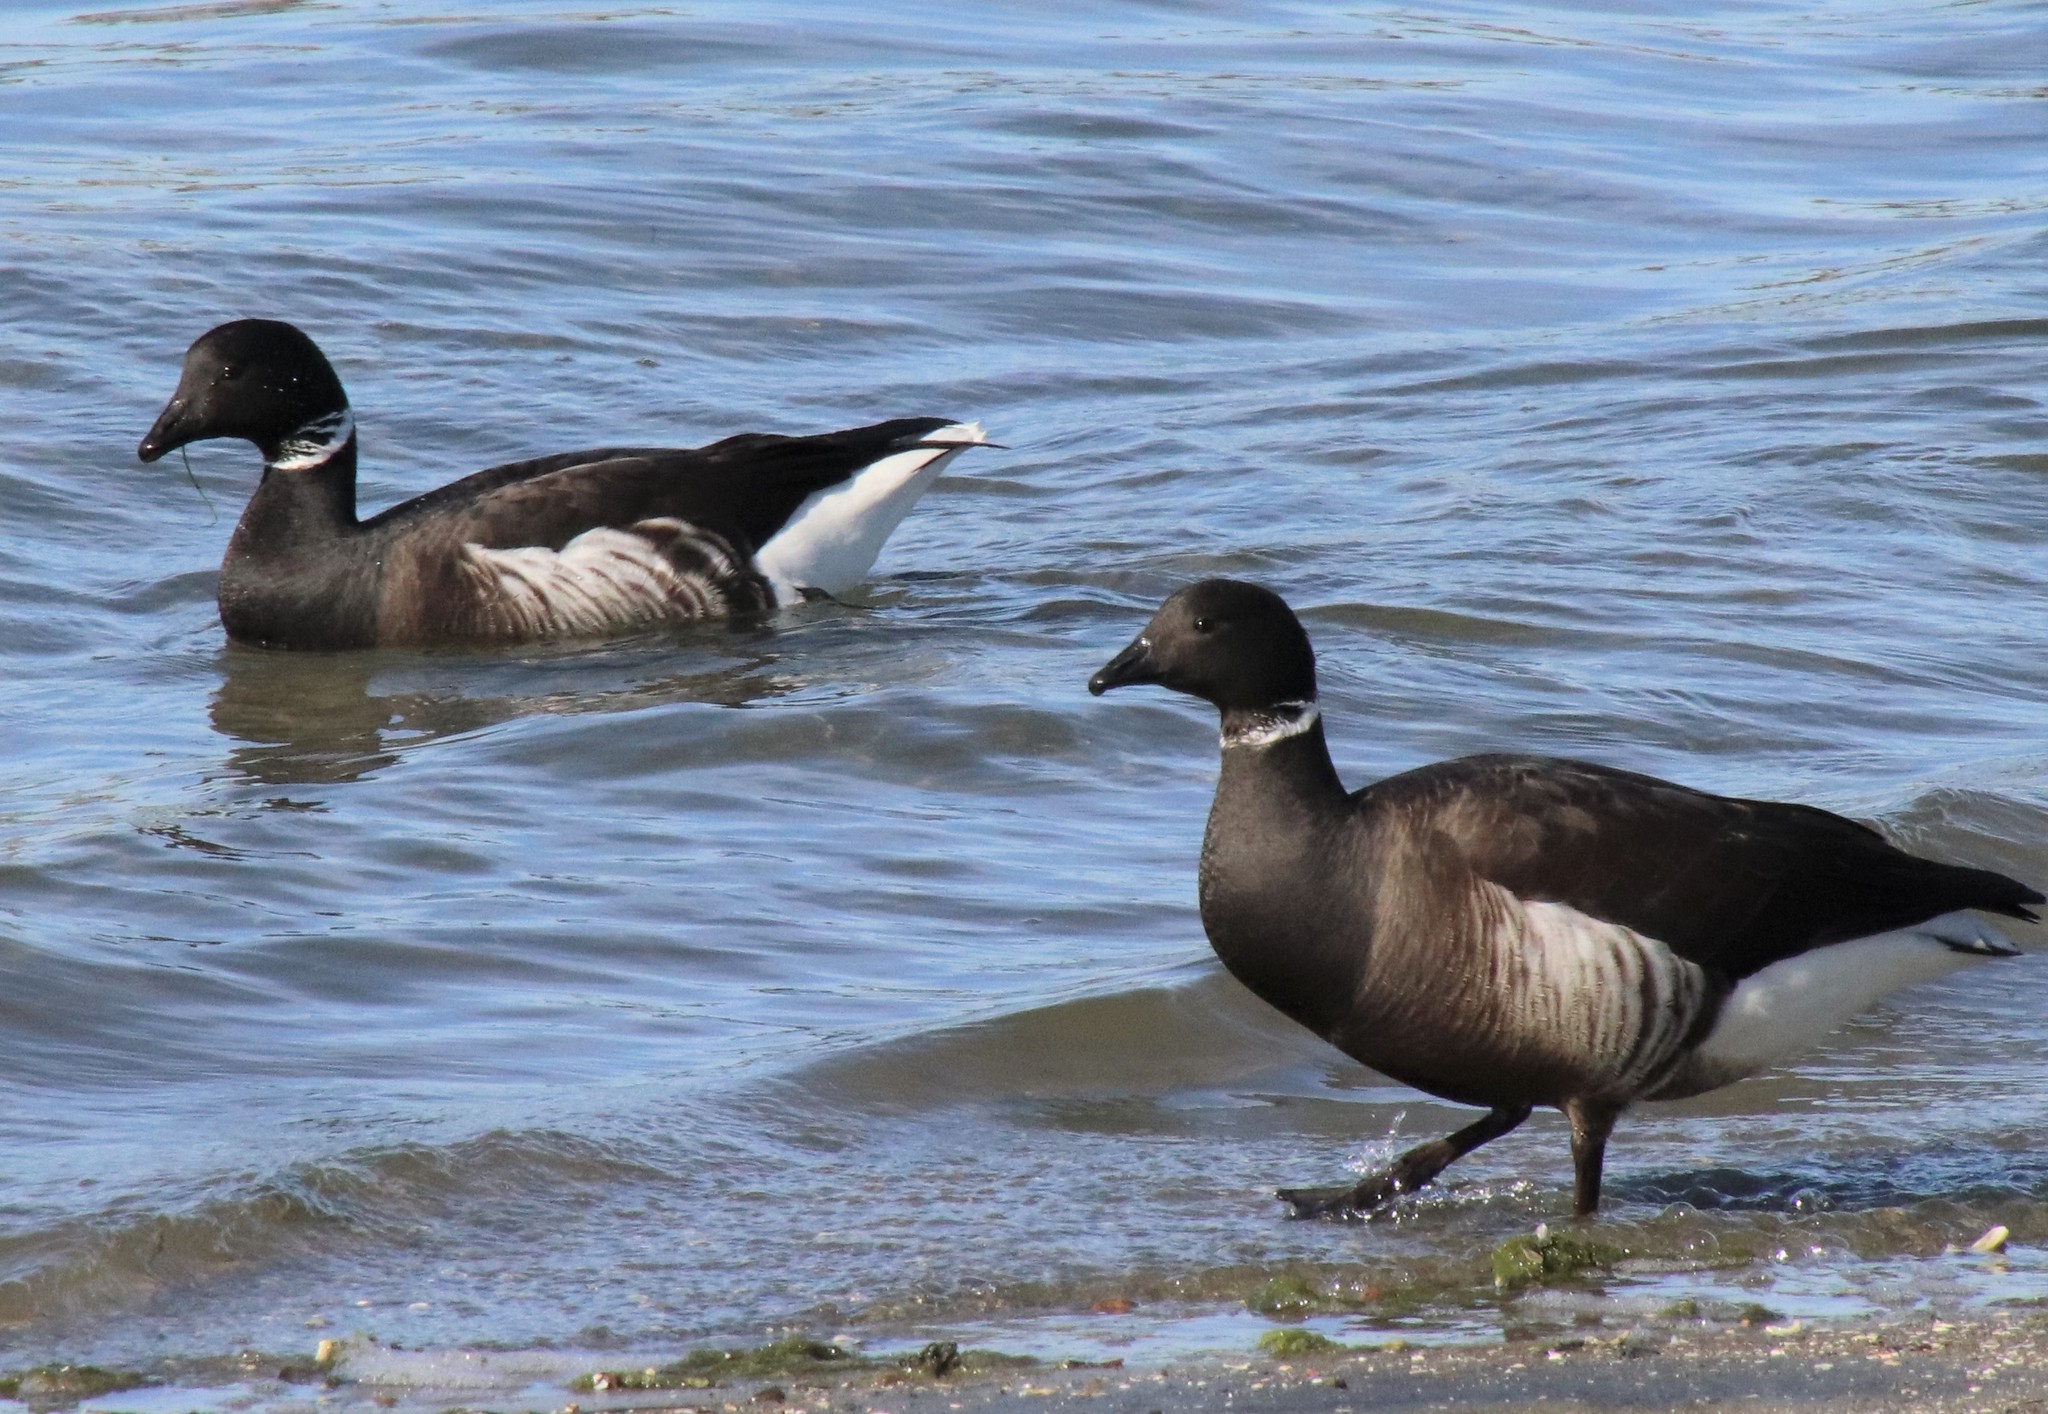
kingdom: Animalia
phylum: Chordata
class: Aves
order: Anseriformes
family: Anatidae
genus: Branta
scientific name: Branta bernicla
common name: Brant goose
